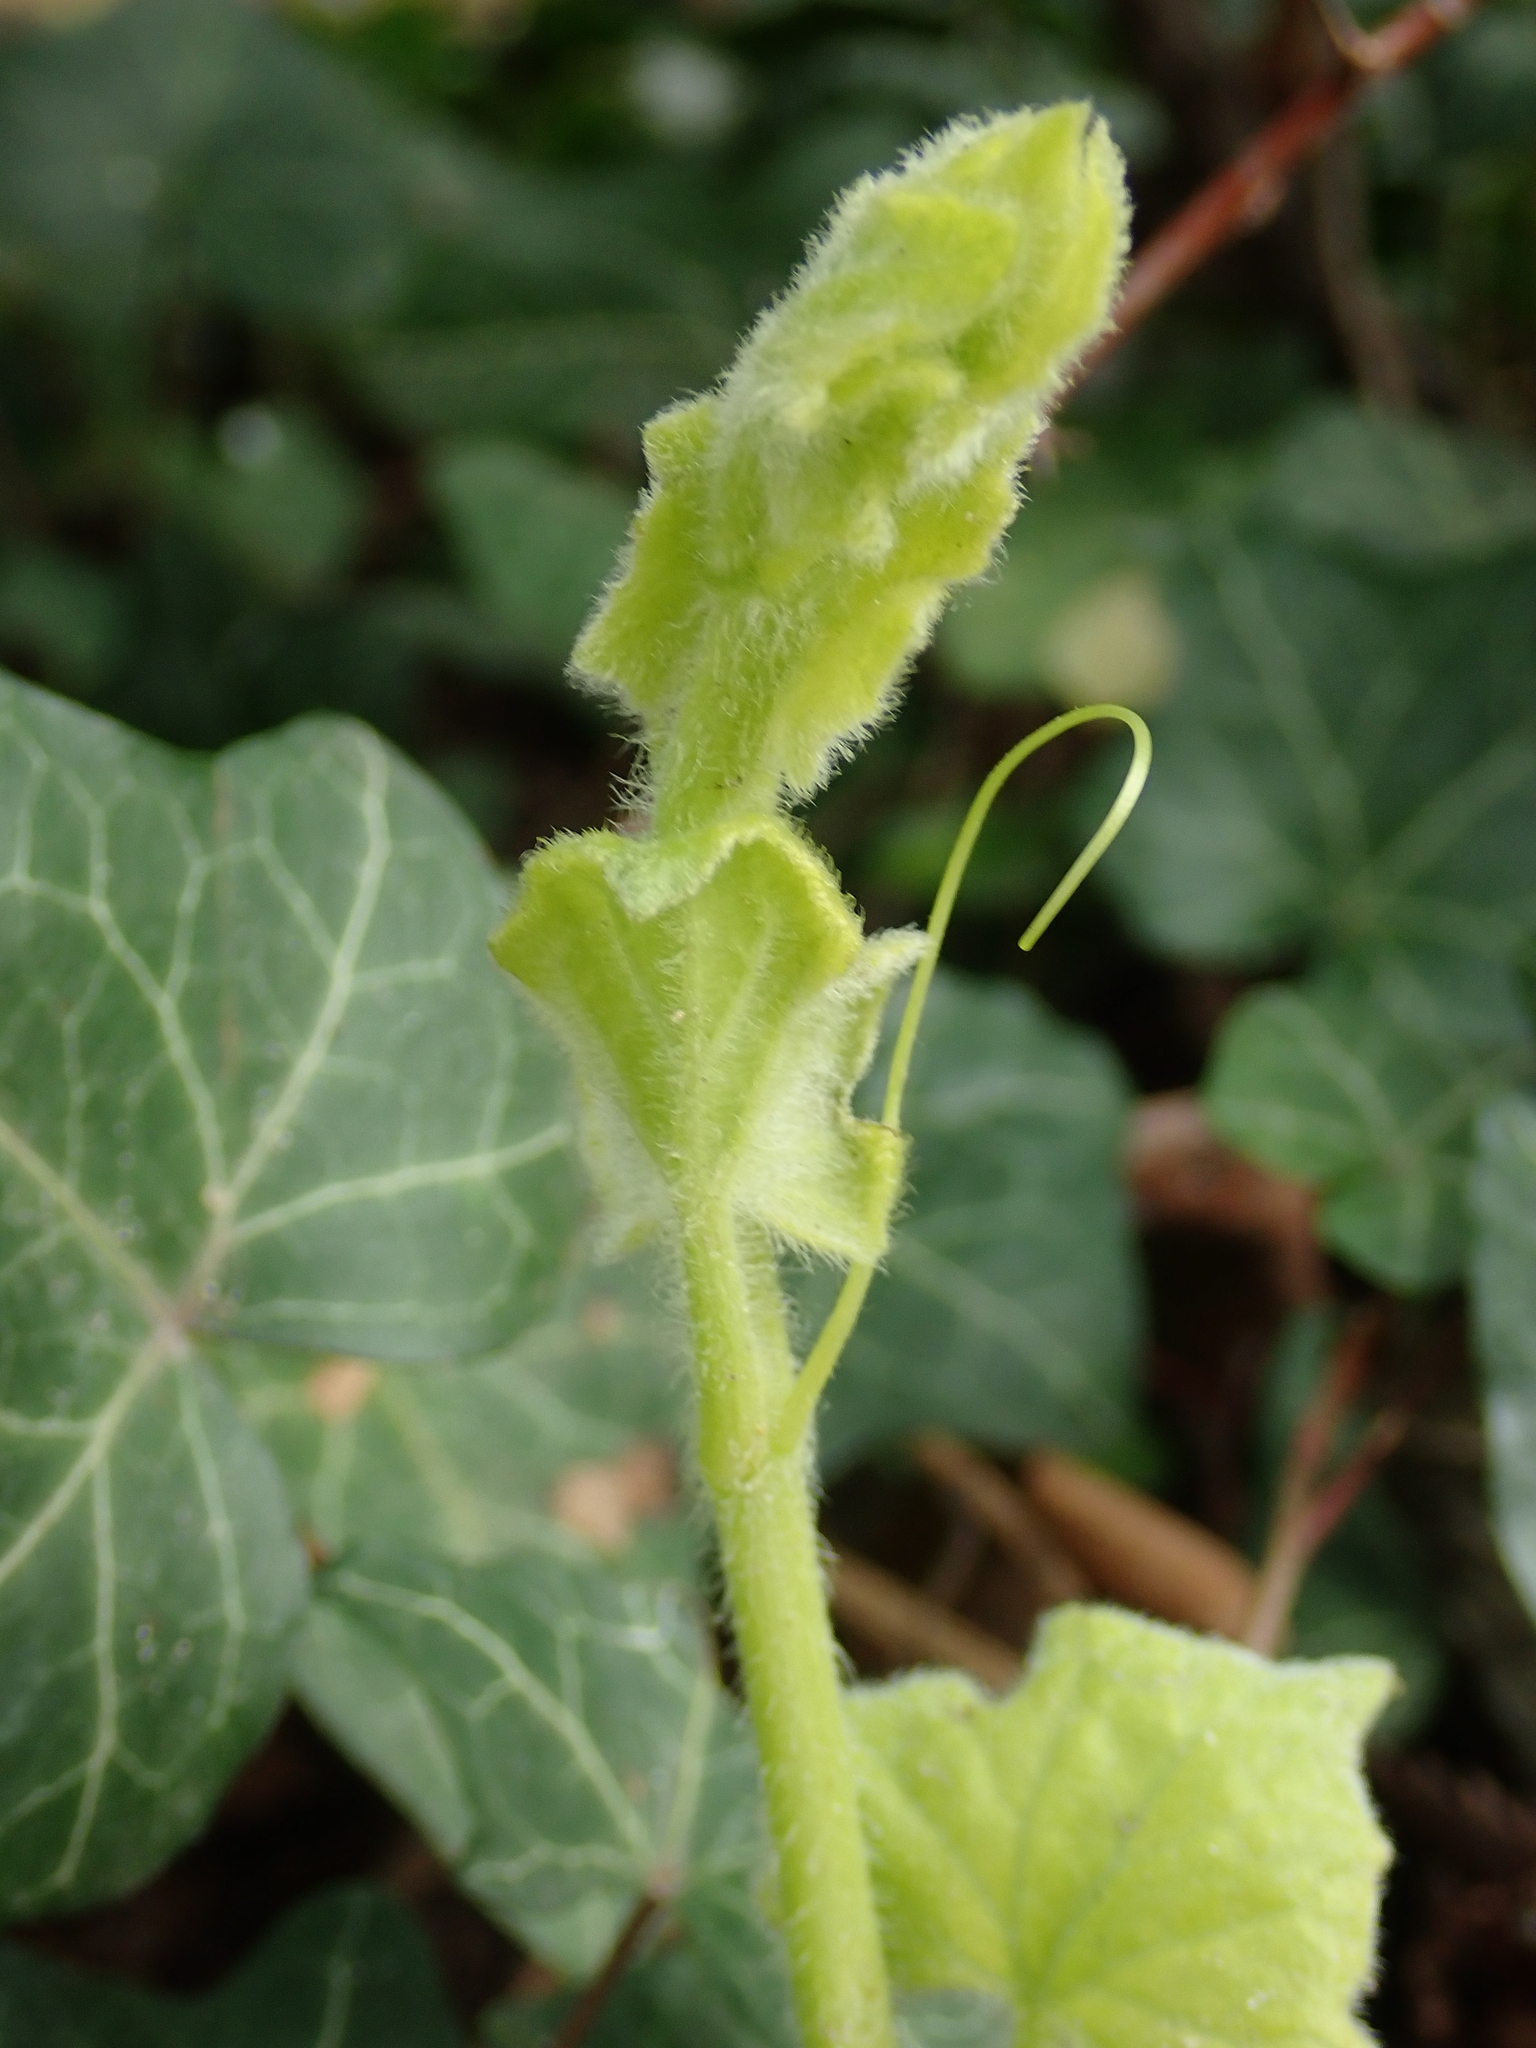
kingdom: Plantae
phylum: Tracheophyta
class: Magnoliopsida
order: Cucurbitales
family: Cucurbitaceae
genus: Bryonia
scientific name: Bryonia cretica
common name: Cretan bryony
